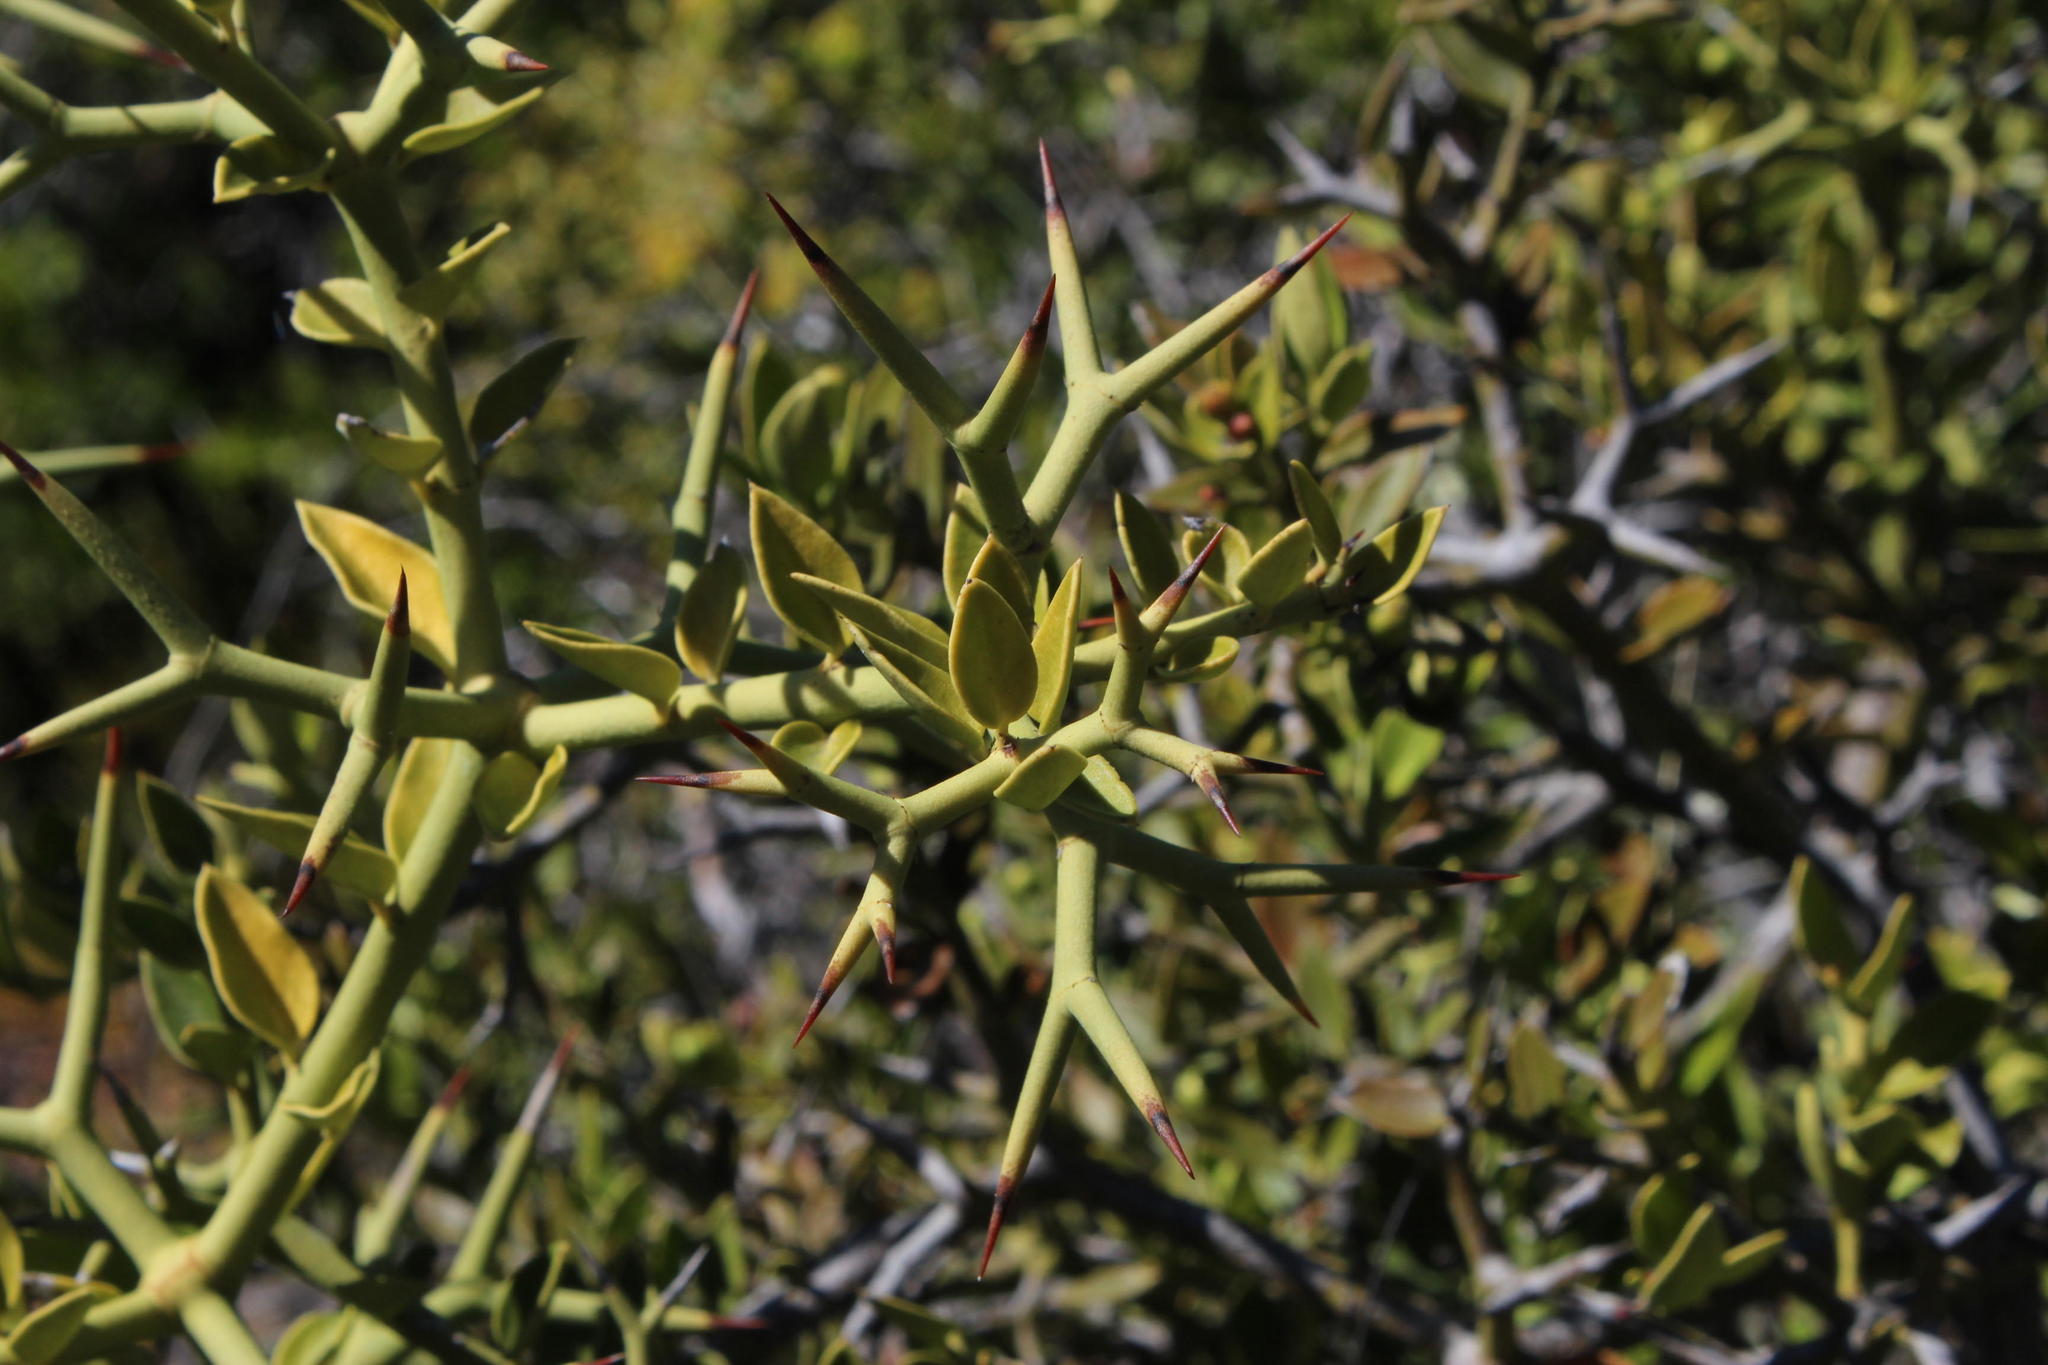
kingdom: Plantae
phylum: Tracheophyta
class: Magnoliopsida
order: Gentianales
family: Apocynaceae
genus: Carissa
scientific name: Carissa haematocarpa
